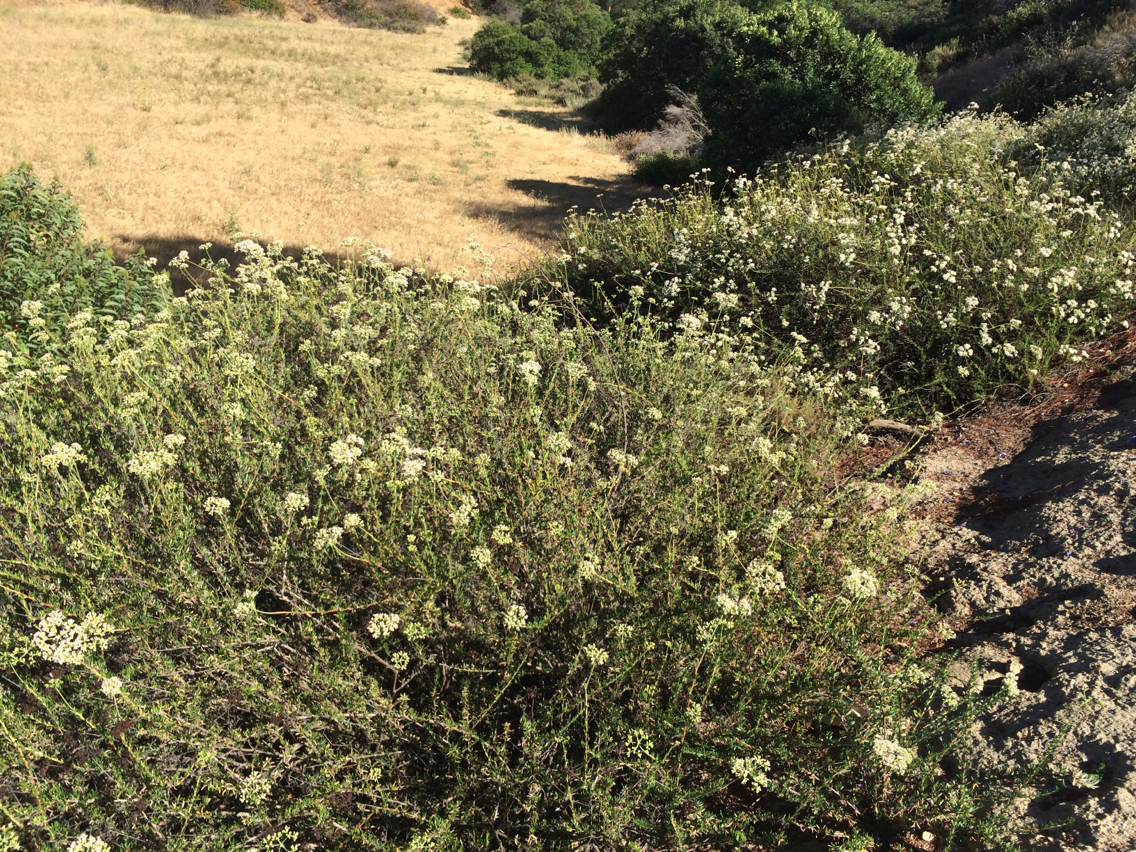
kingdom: Plantae
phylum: Tracheophyta
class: Magnoliopsida
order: Caryophyllales
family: Polygonaceae
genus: Eriogonum
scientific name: Eriogonum fasciculatum
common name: California wild buckwheat
